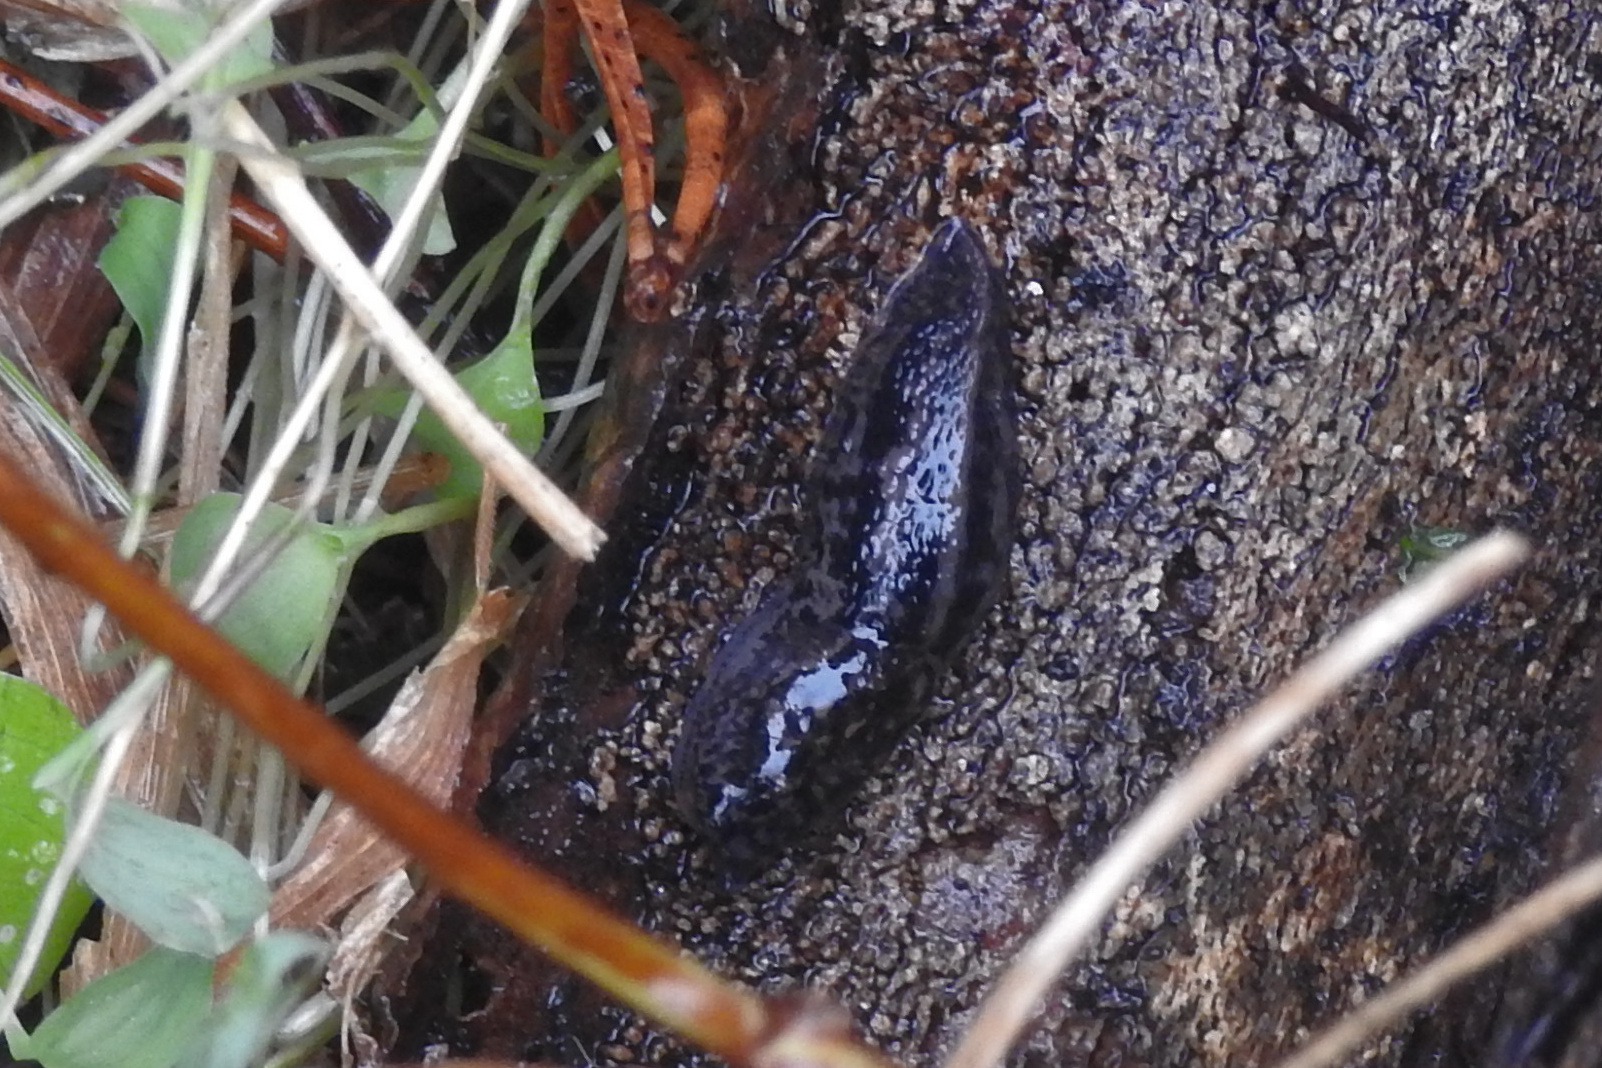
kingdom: Animalia
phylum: Mollusca
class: Gastropoda
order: Stylommatophora
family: Limacidae
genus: Limax
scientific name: Limax maximus
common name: Great grey slug
